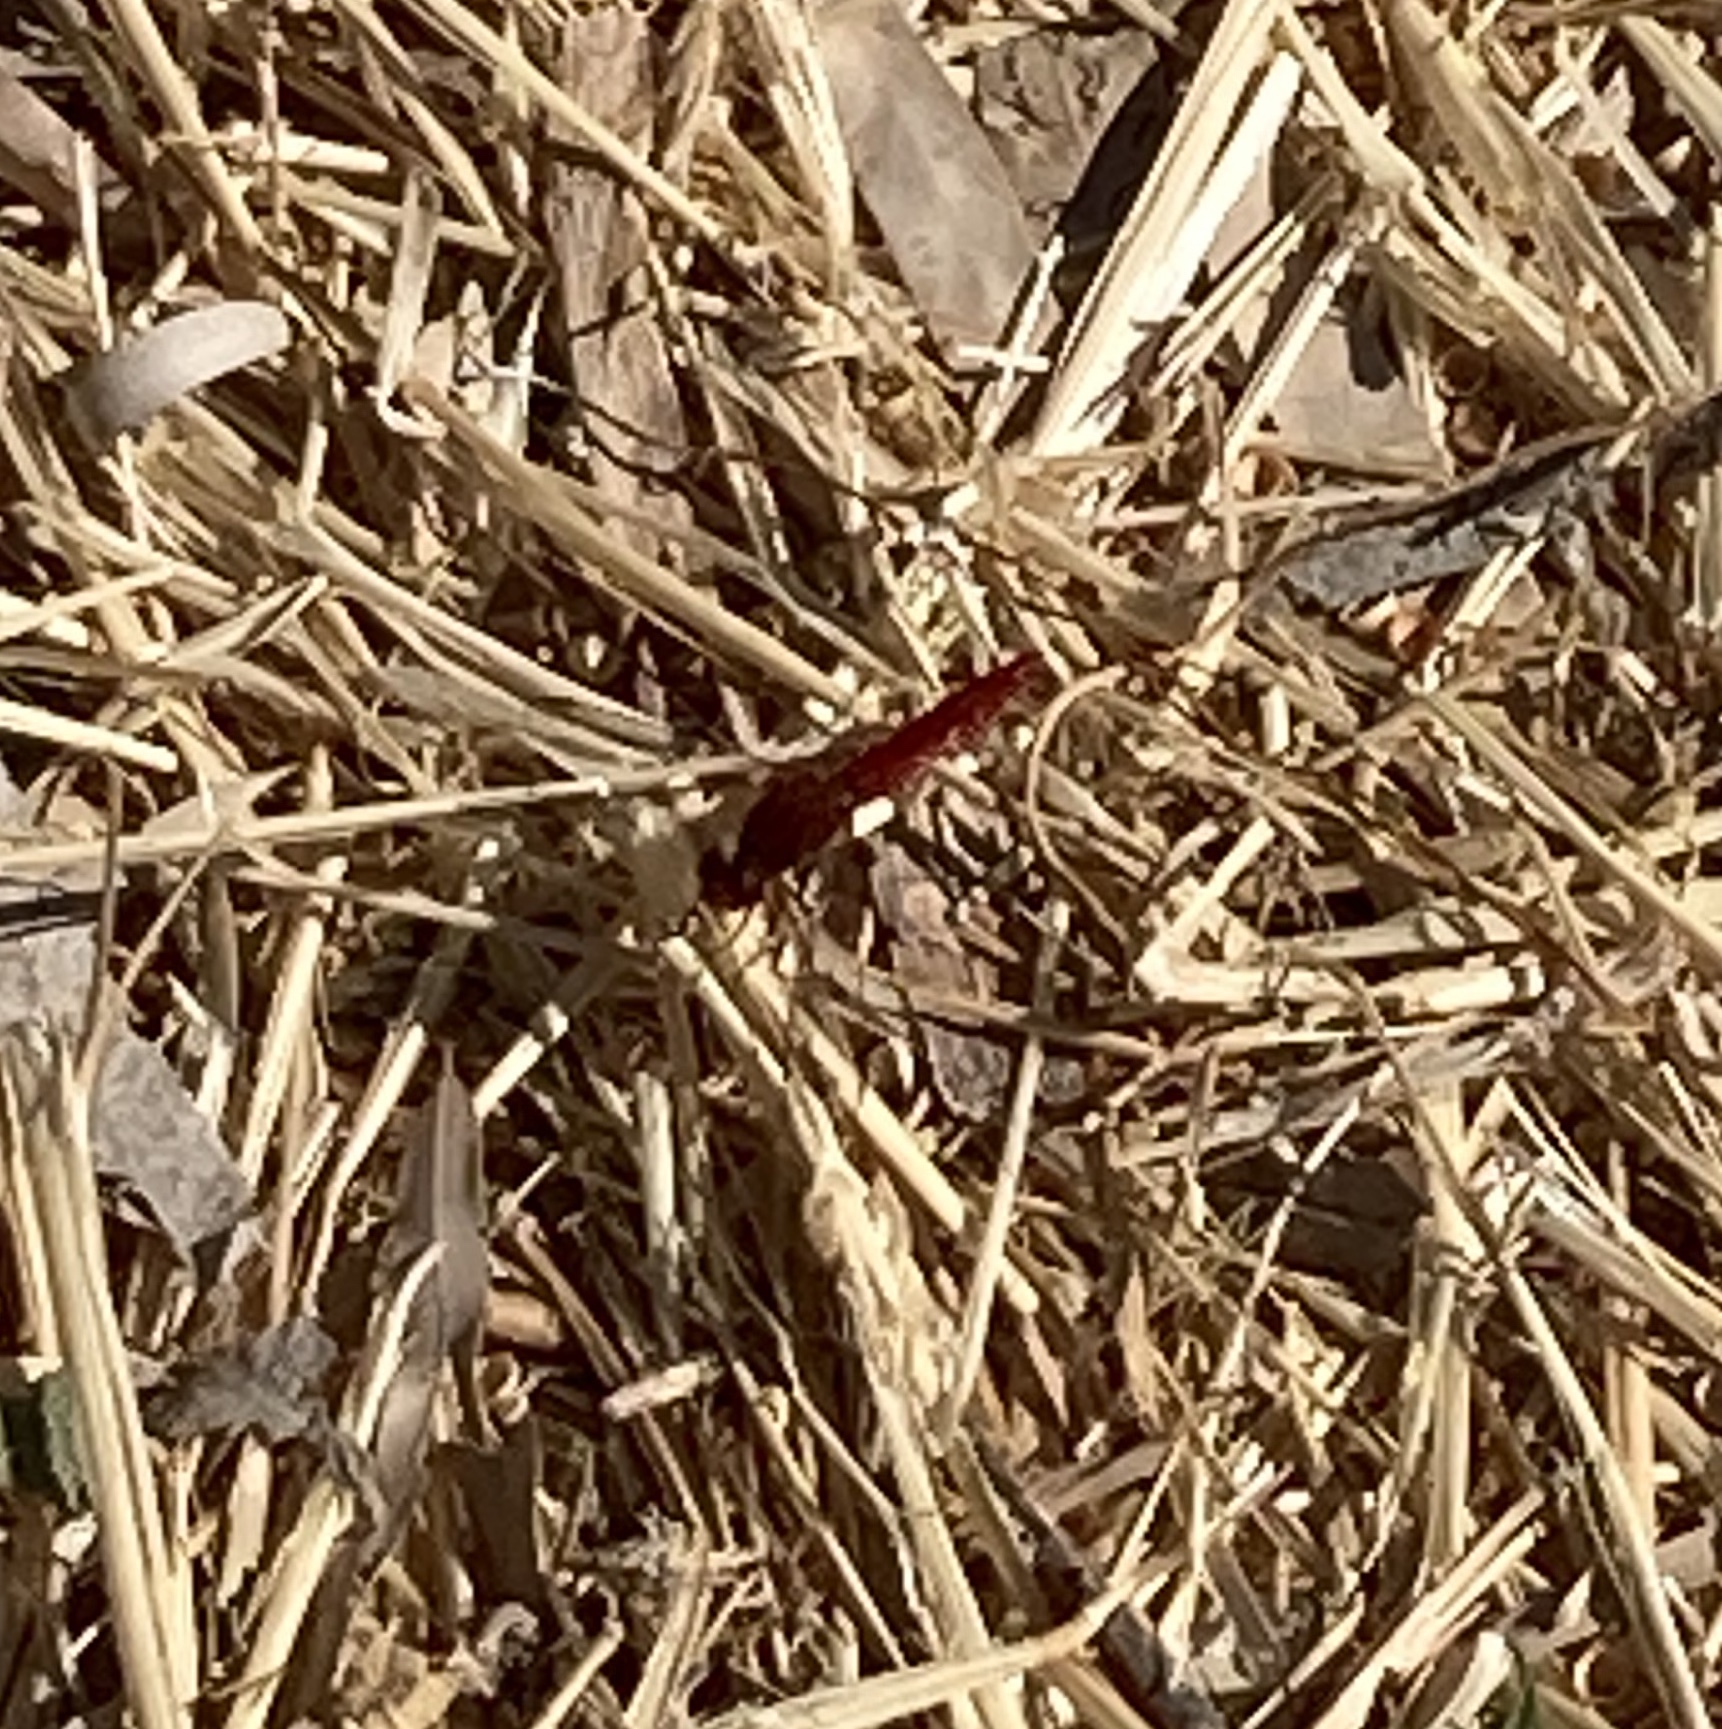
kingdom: Animalia
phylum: Arthropoda
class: Insecta
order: Odonata
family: Libellulidae
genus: Crocothemis
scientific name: Crocothemis erythraea
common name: Scarlet dragonfly
